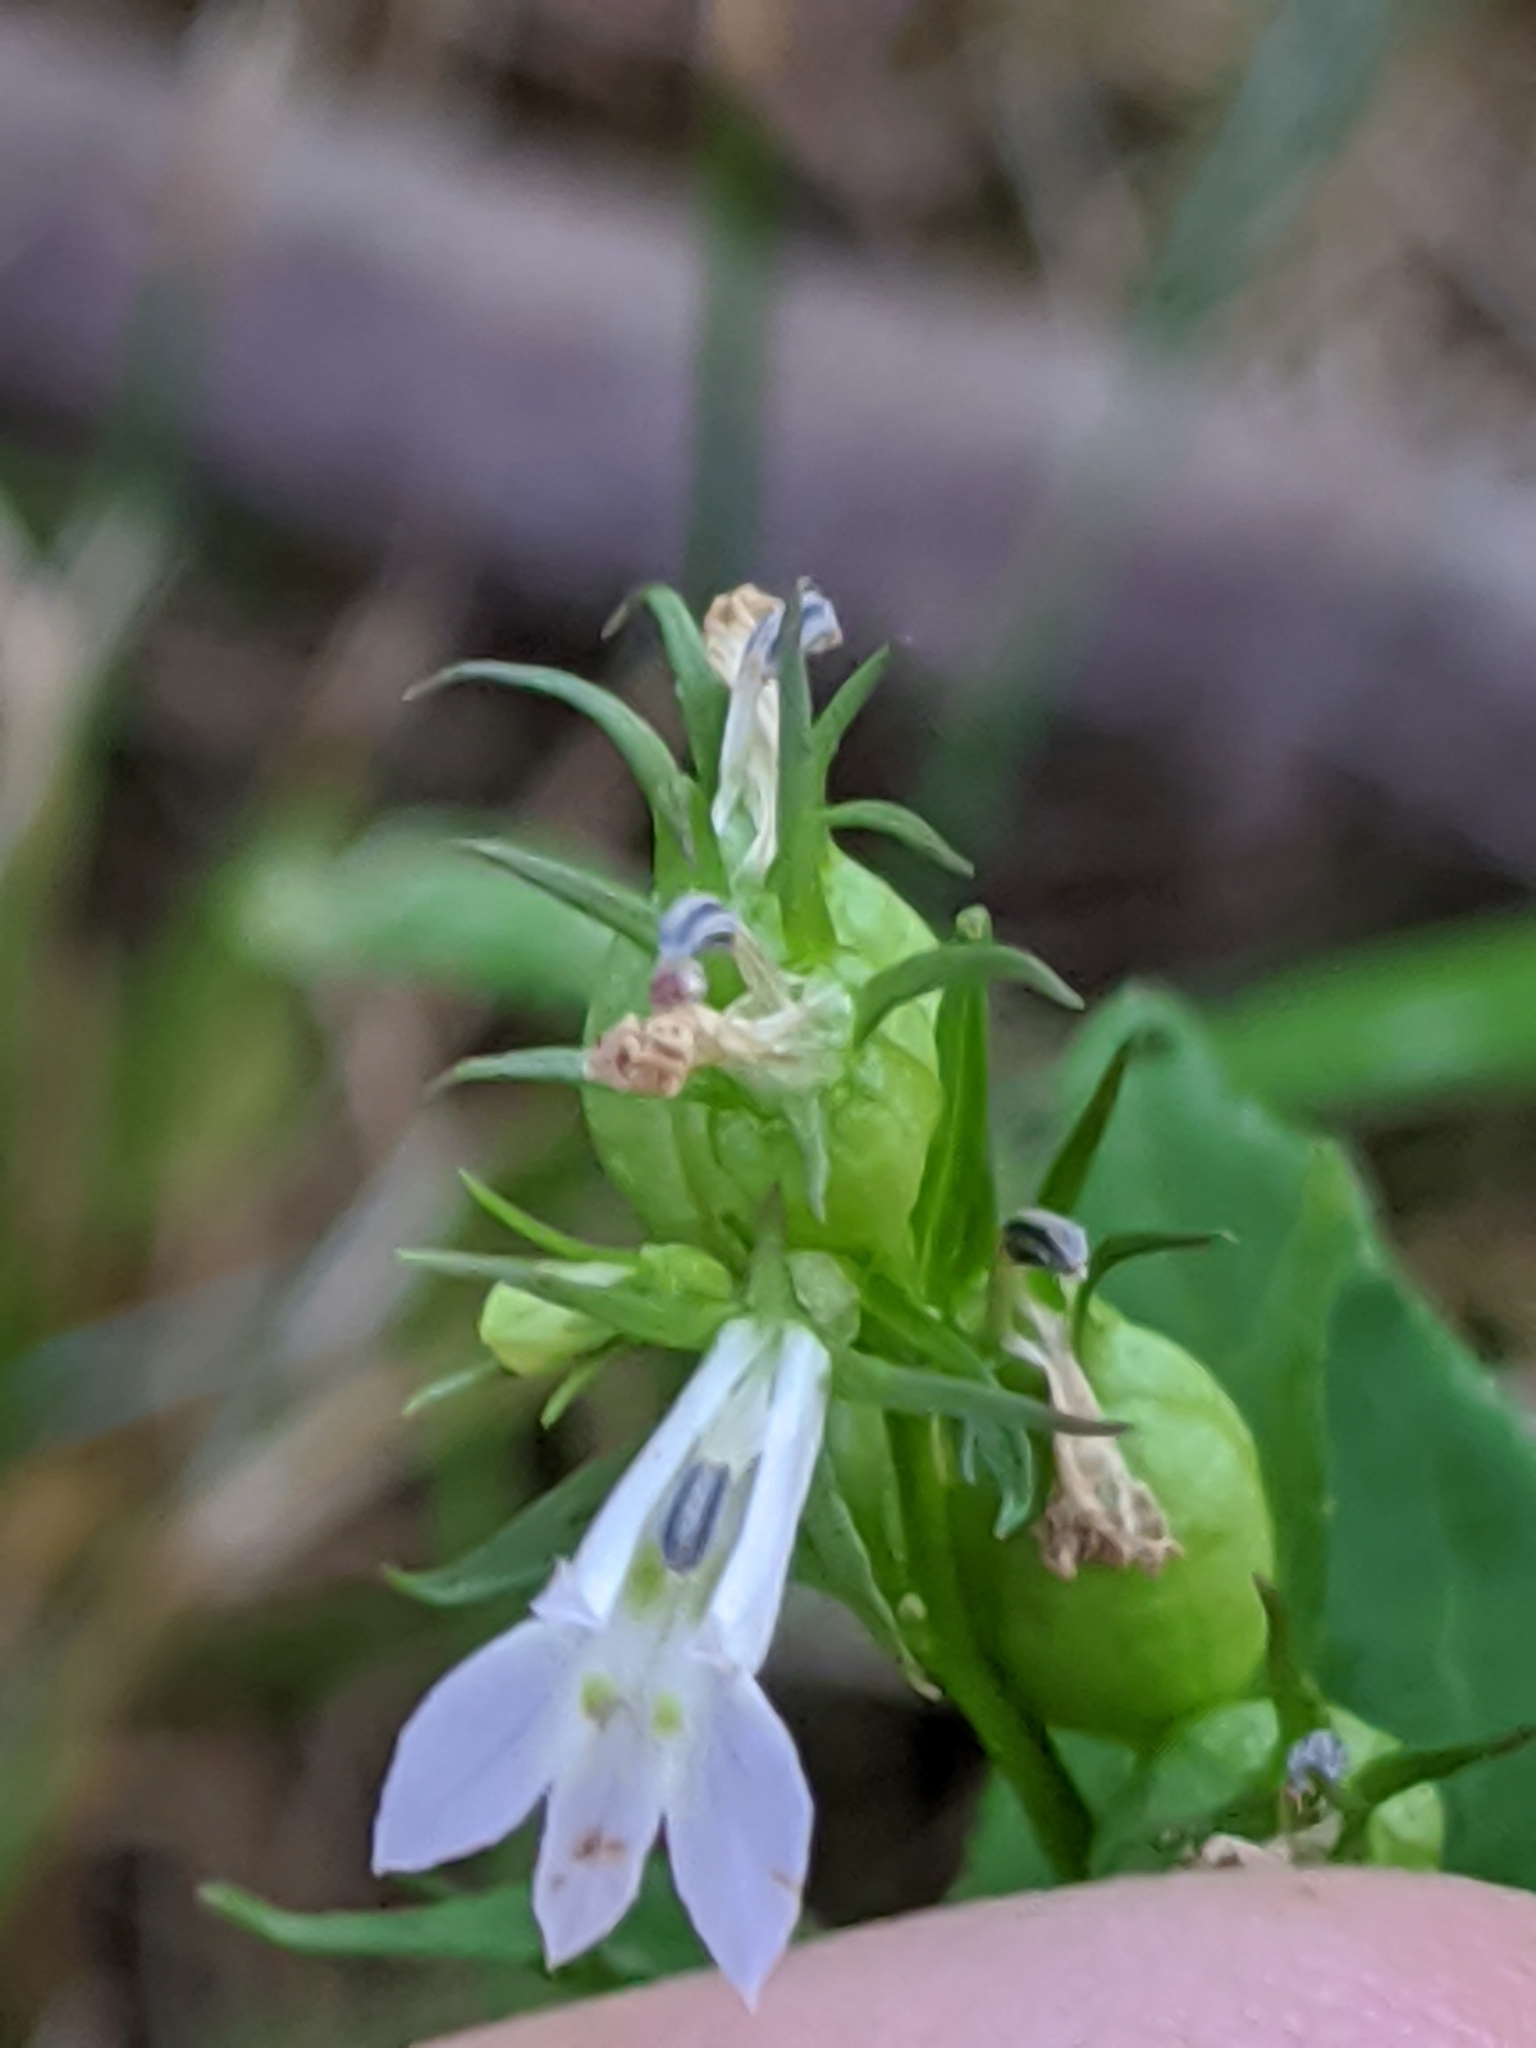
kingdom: Plantae
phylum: Tracheophyta
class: Magnoliopsida
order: Asterales
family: Campanulaceae
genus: Lobelia
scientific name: Lobelia inflata
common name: Indian tobacco
